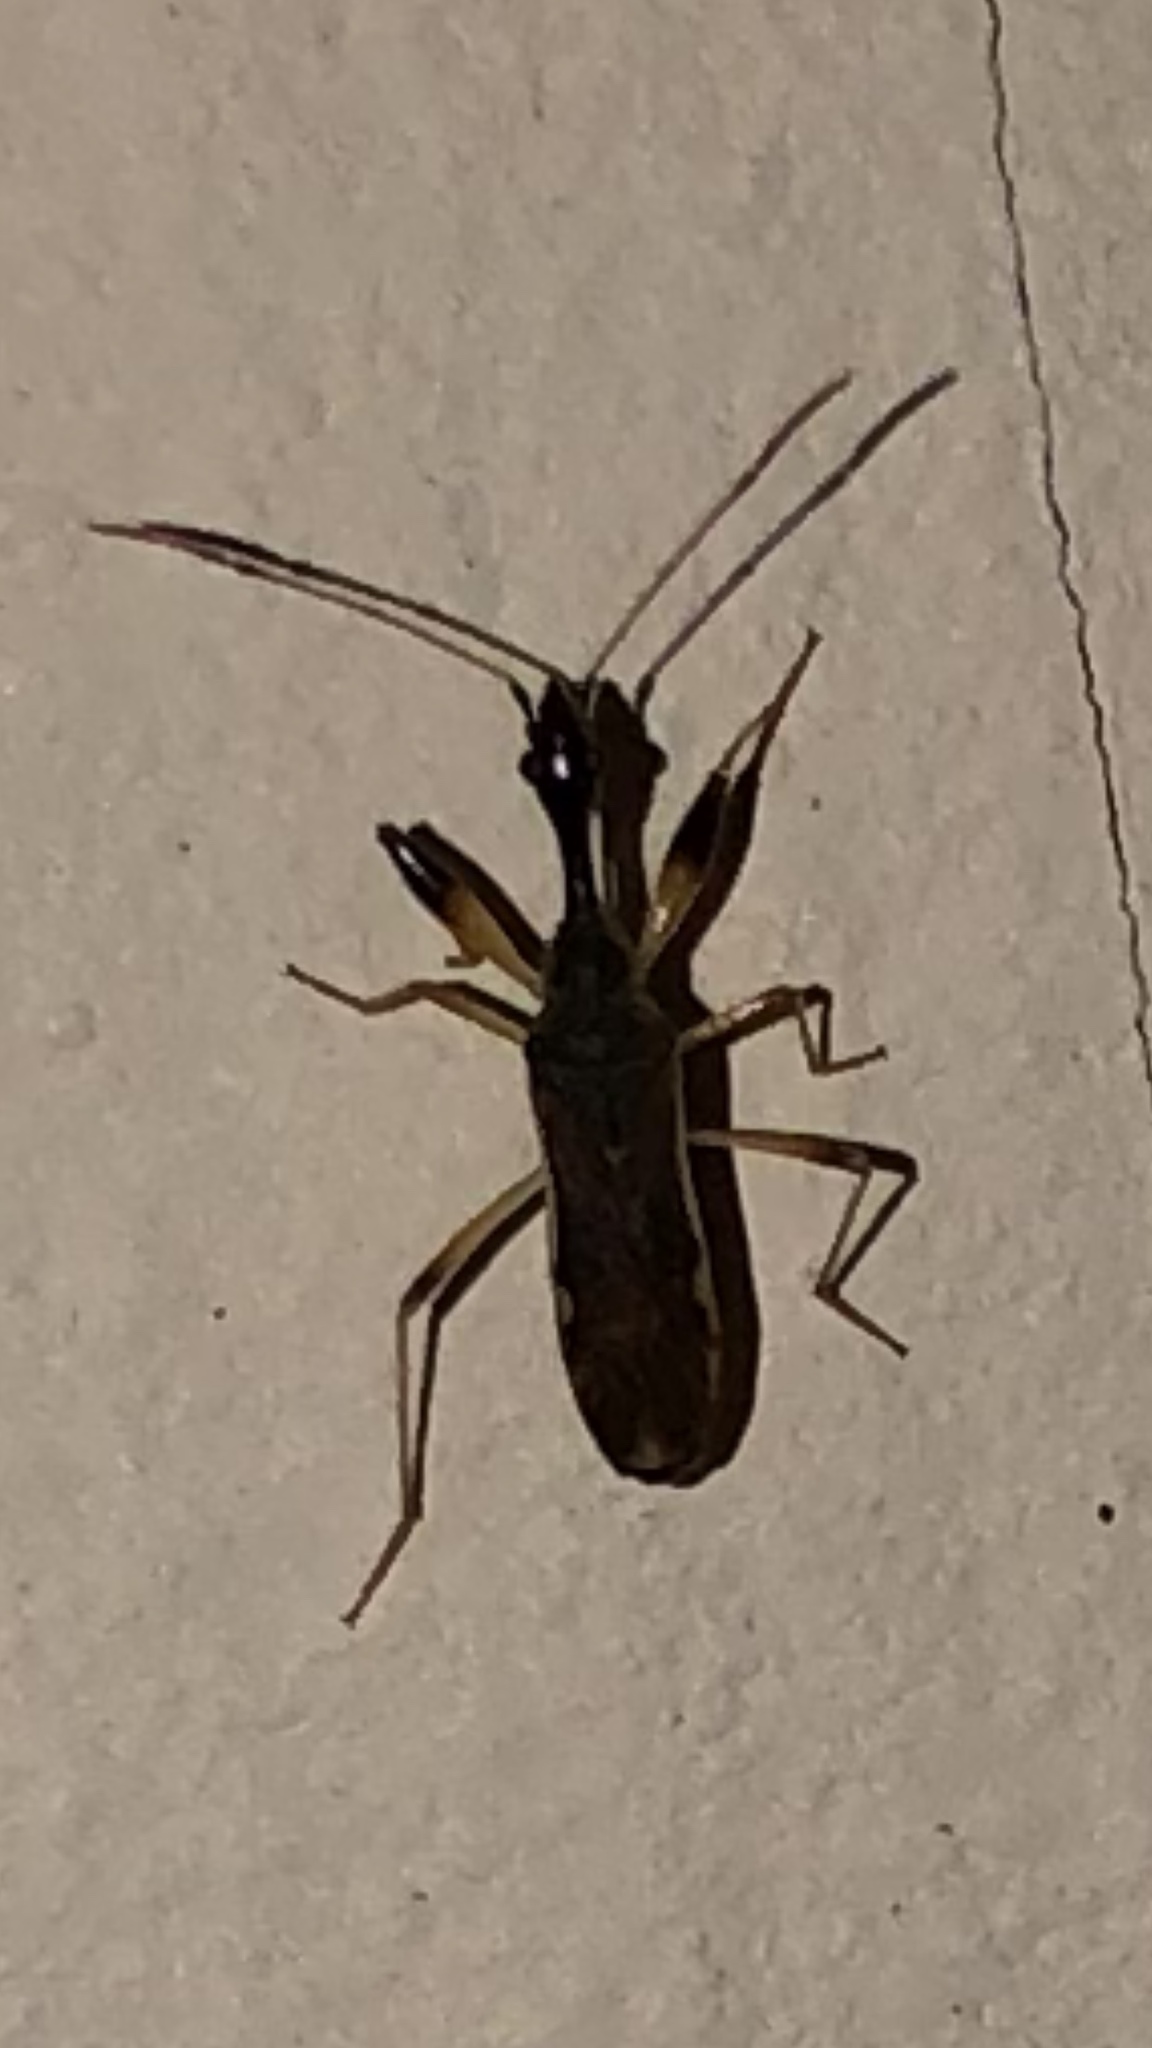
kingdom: Animalia
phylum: Arthropoda
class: Insecta
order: Hemiptera
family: Rhyparochromidae
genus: Myodocha
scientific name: Myodocha serripes
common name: Long-necked seed bug
